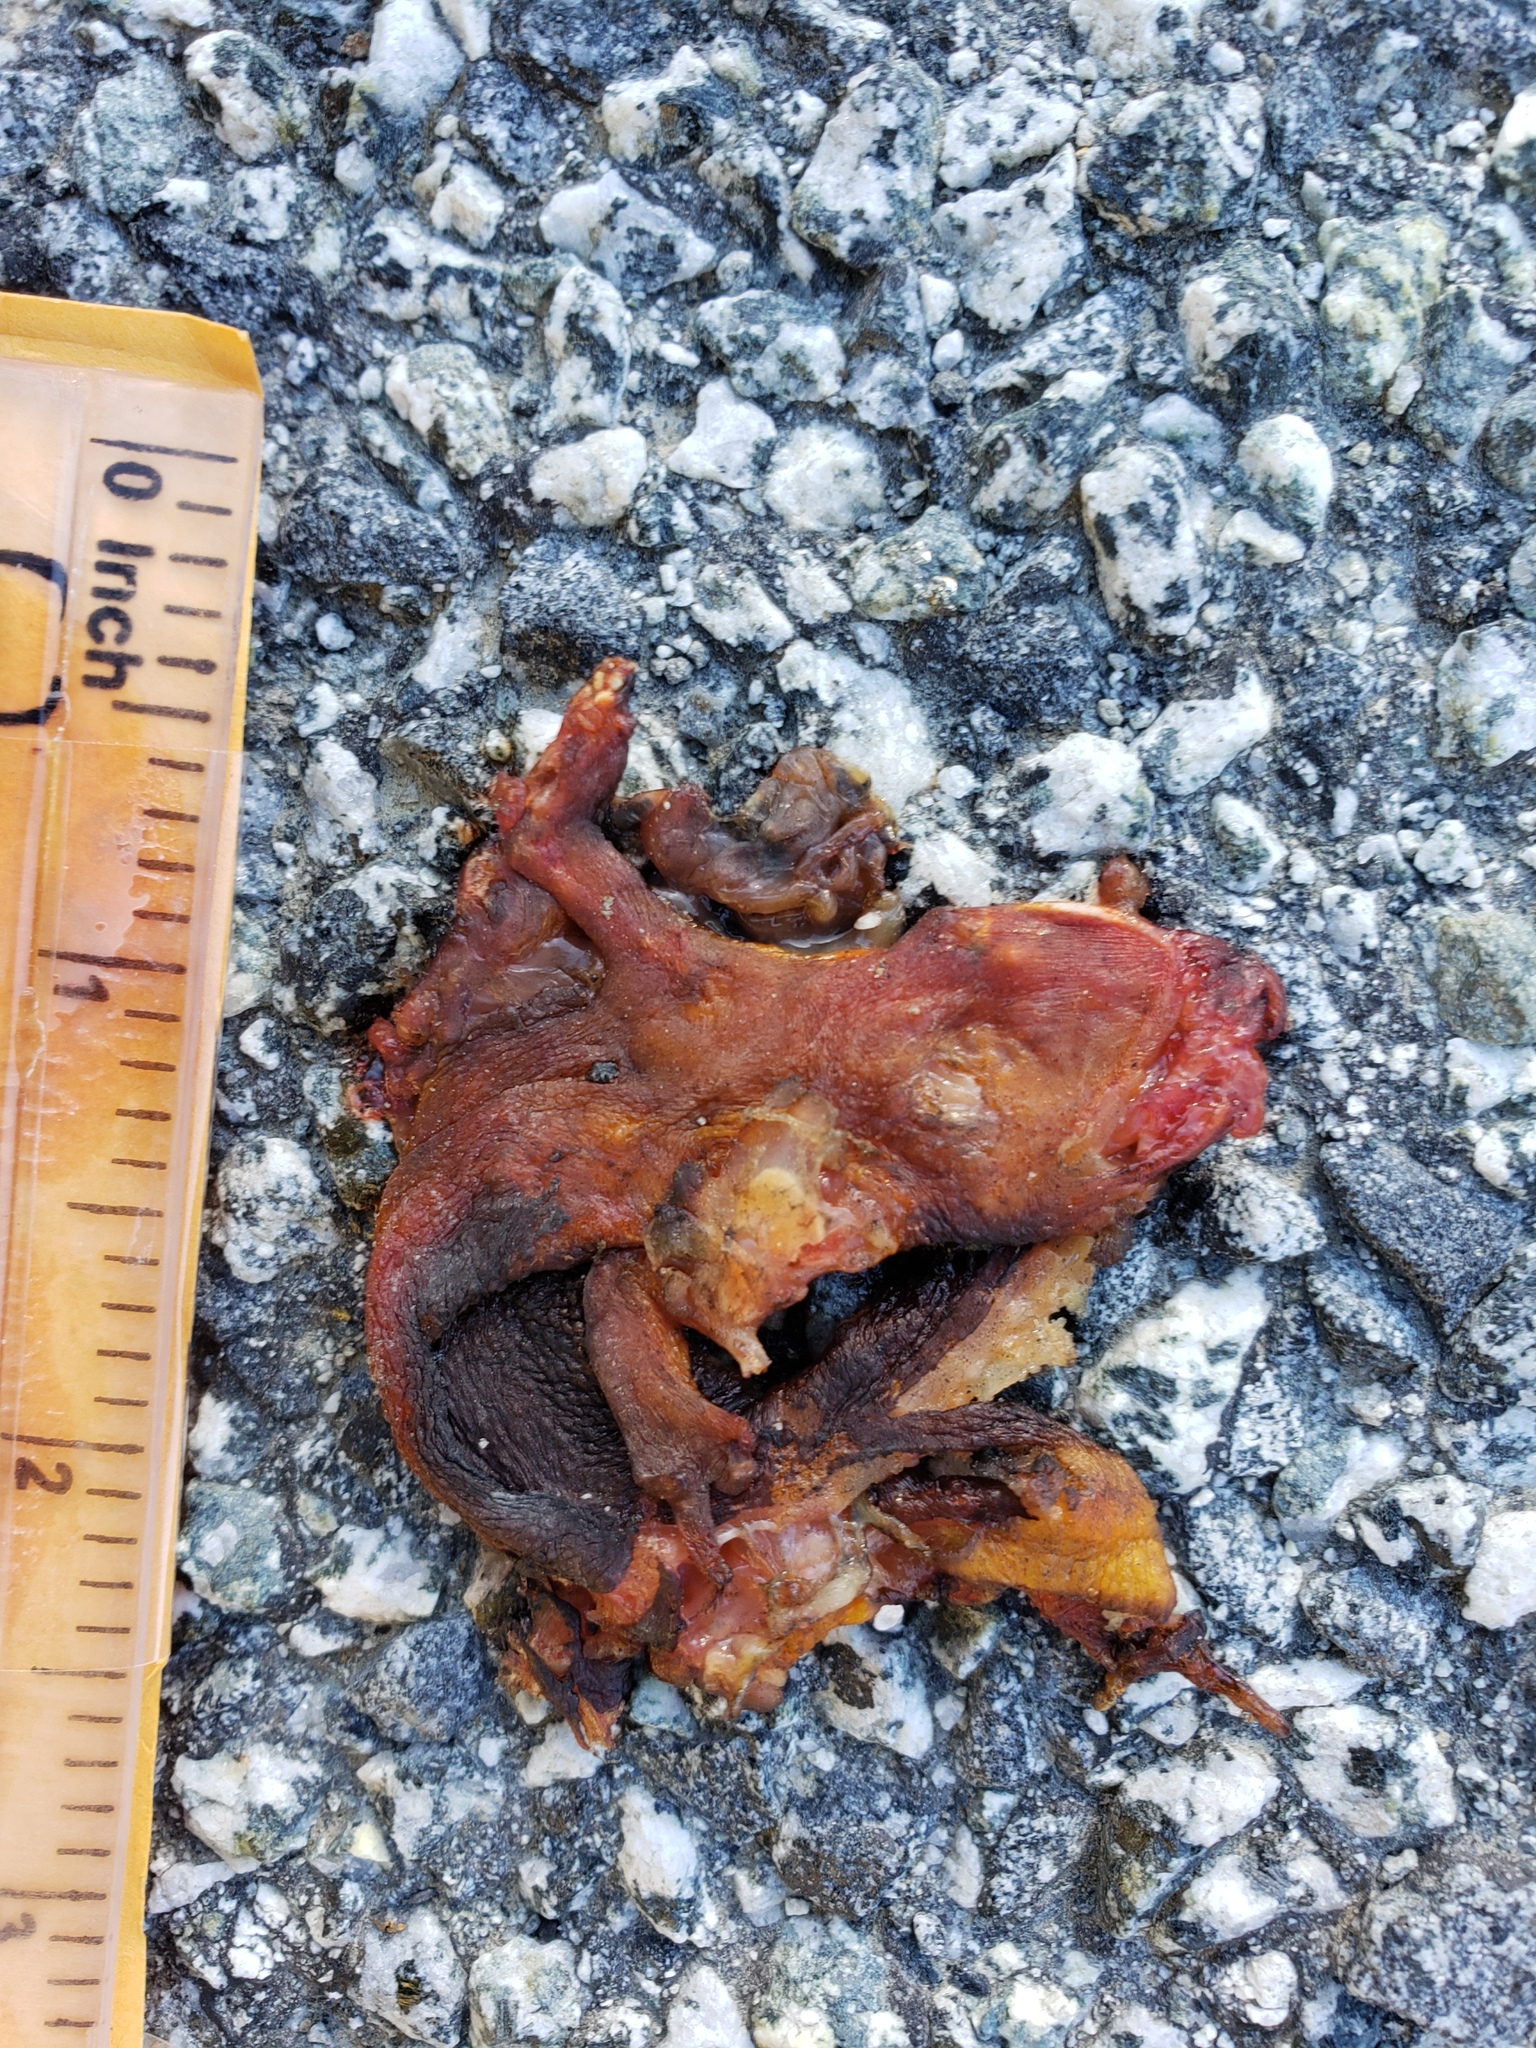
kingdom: Animalia
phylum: Chordata
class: Amphibia
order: Caudata
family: Salamandridae
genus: Taricha
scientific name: Taricha
